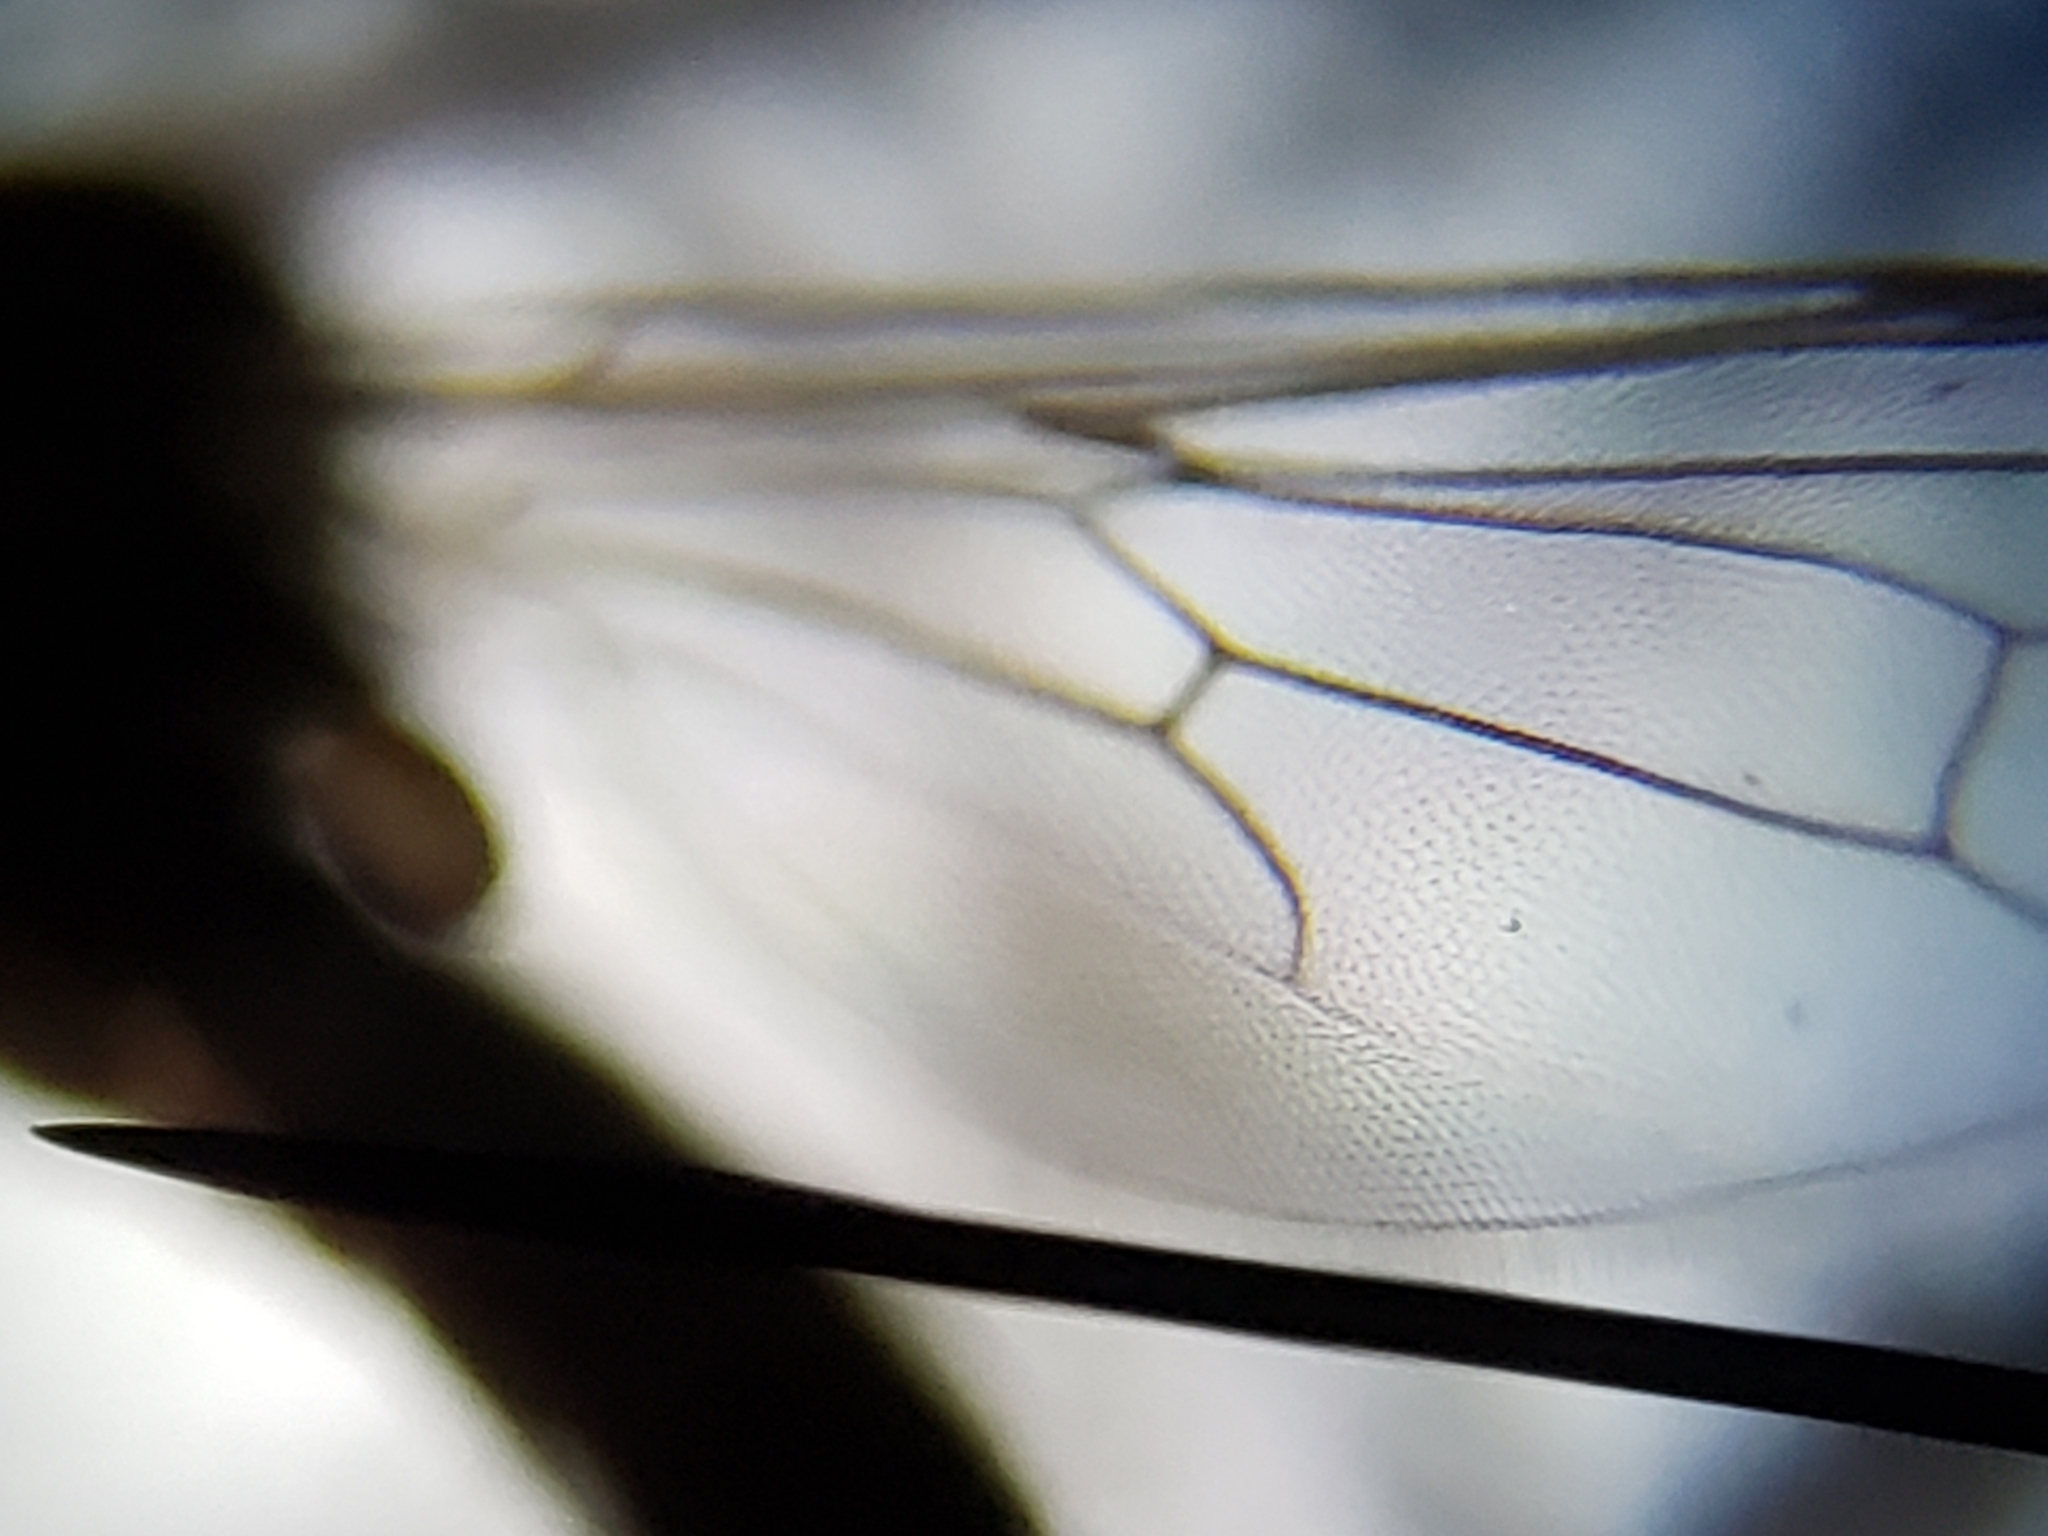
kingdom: Animalia
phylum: Arthropoda
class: Insecta
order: Diptera
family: Hybotidae
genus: Euhybus
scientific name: Euhybus strumaticus
